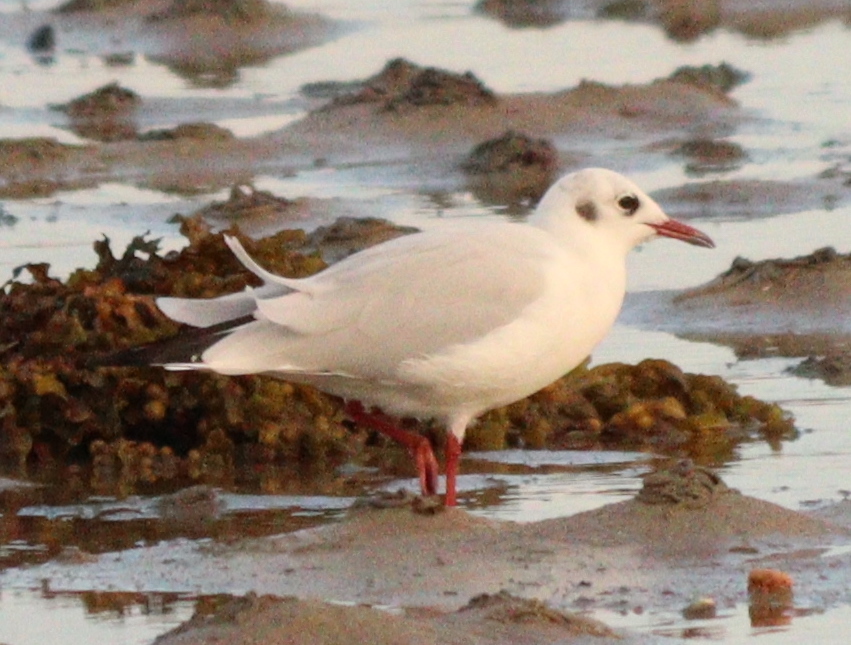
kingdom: Animalia
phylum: Chordata
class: Aves
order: Charadriiformes
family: Laridae
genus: Chroicocephalus
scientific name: Chroicocephalus ridibundus
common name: Black-headed gull
